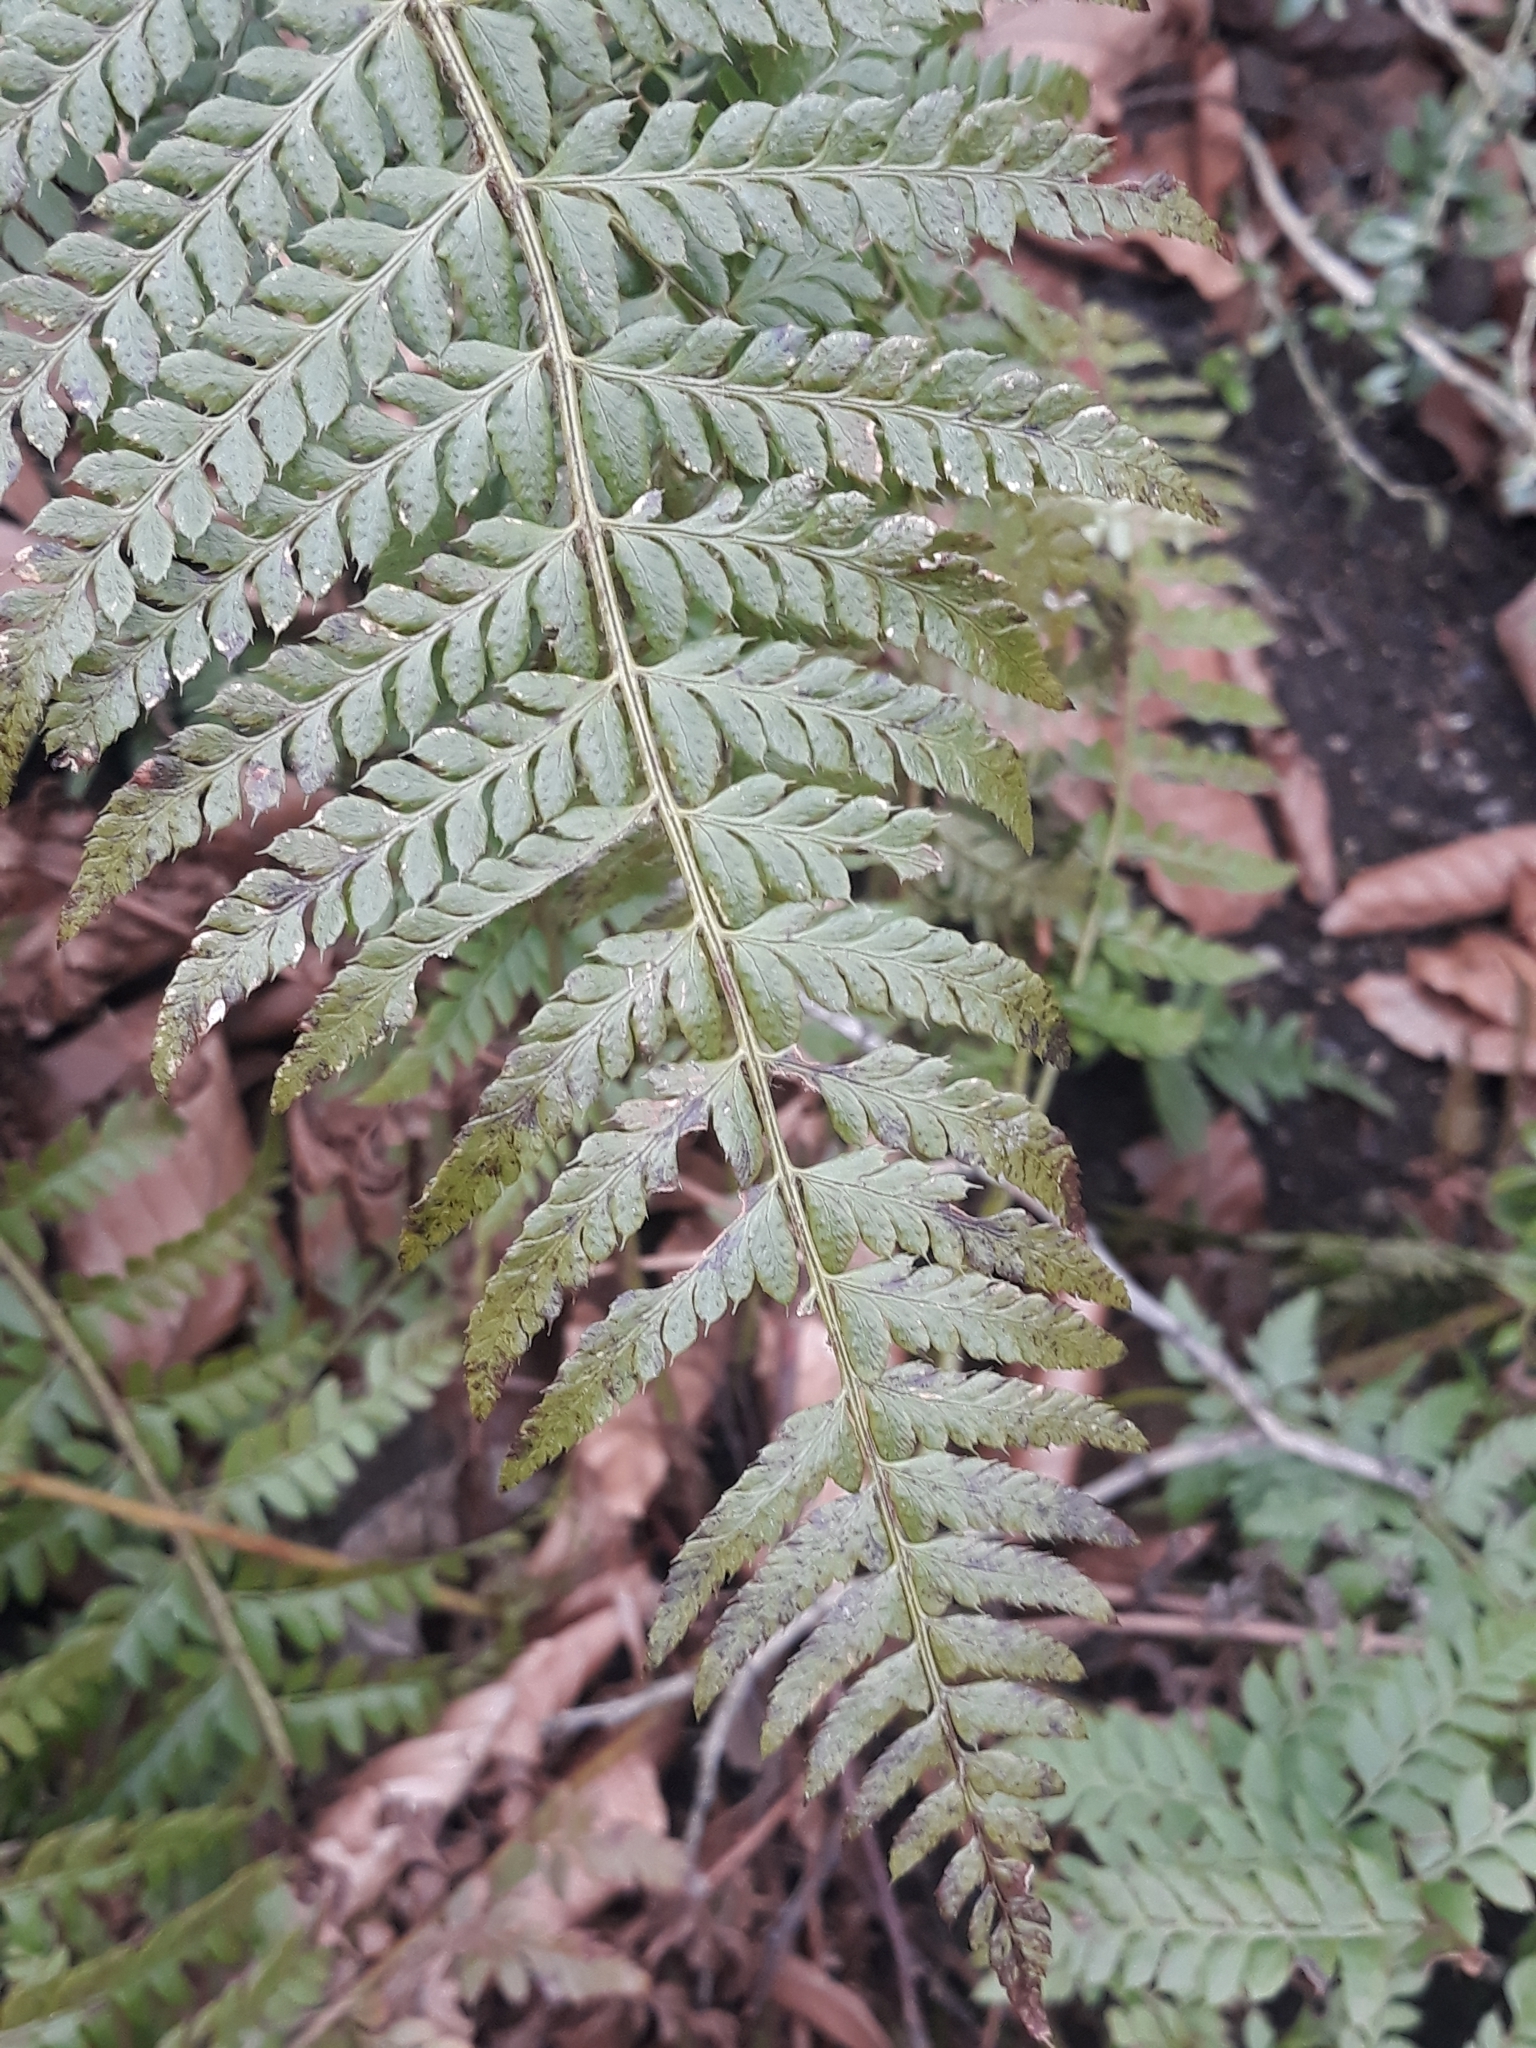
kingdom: Plantae
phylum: Tracheophyta
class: Polypodiopsida
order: Polypodiales
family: Dryopteridaceae
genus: Polystichum
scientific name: Polystichum aculeatum
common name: Hard shield-fern
